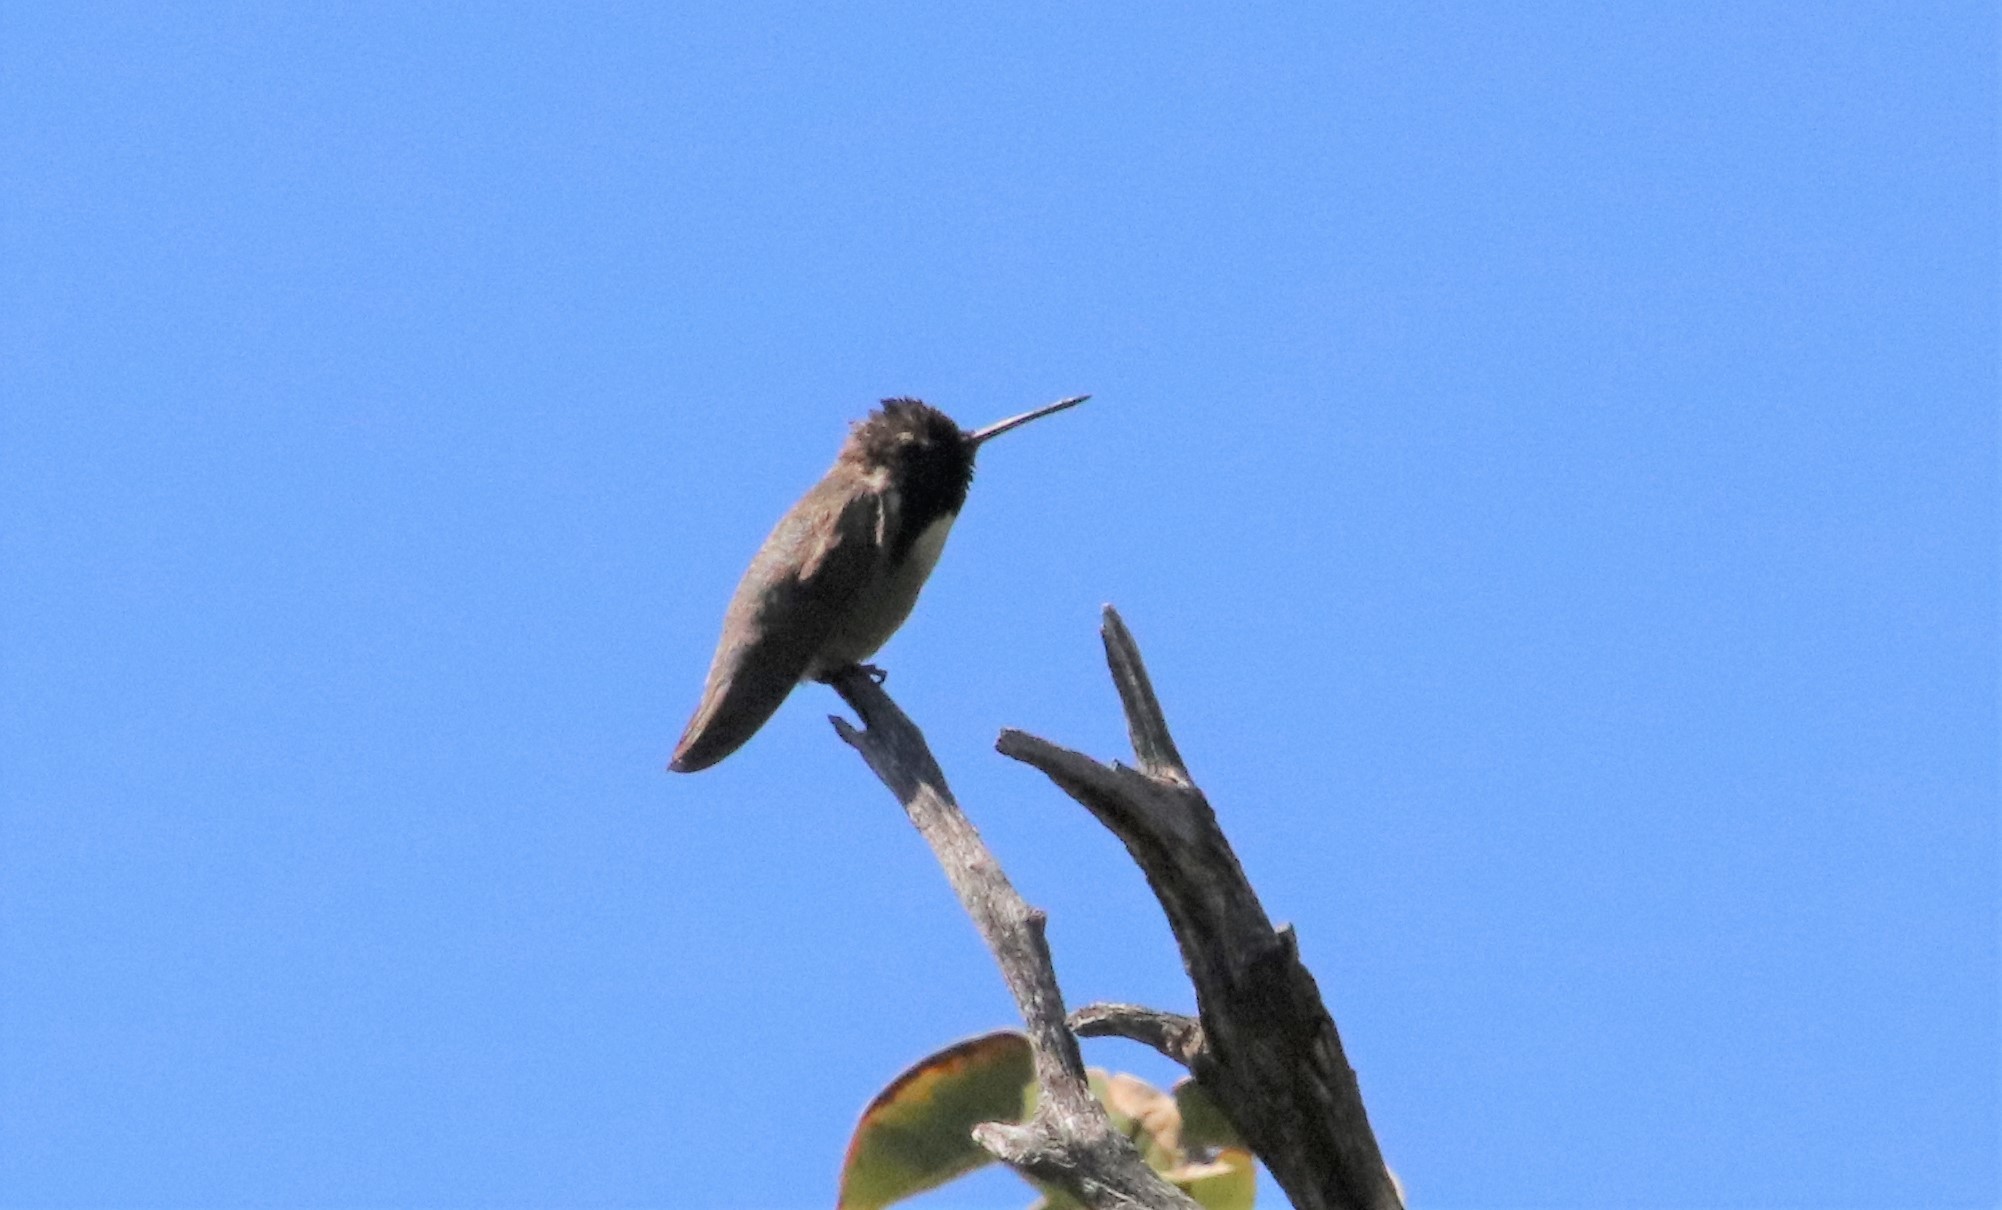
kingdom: Animalia
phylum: Chordata
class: Aves
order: Apodiformes
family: Trochilidae
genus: Calypte
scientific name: Calypte costae
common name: Costa's hummingbird
